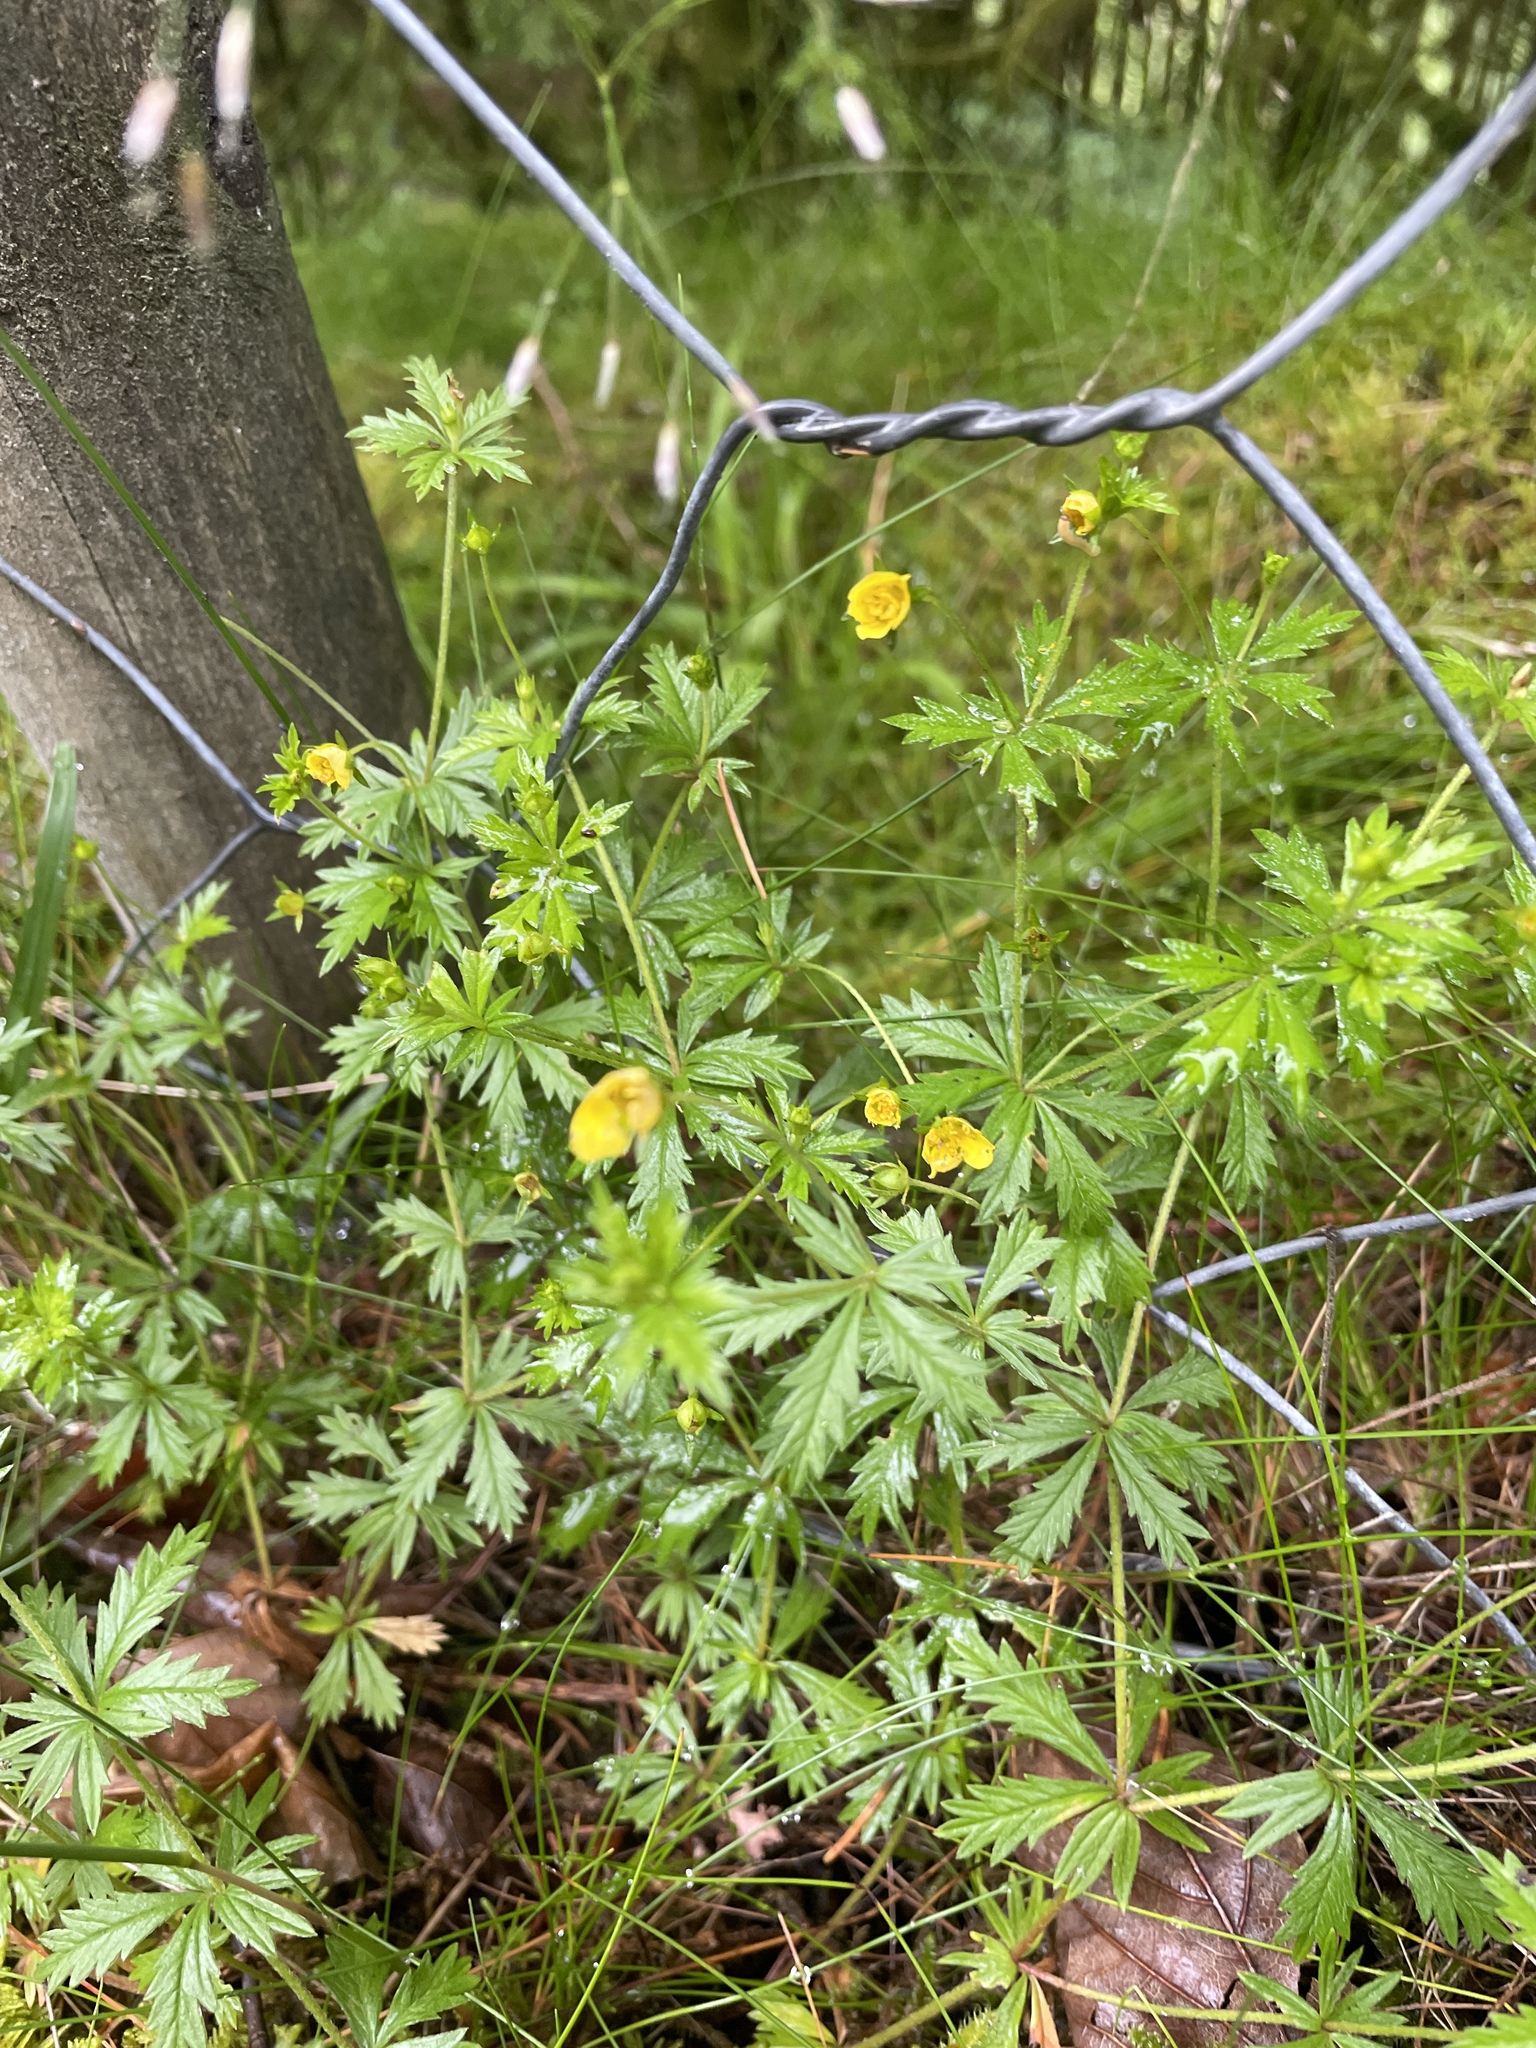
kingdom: Plantae
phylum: Tracheophyta
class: Magnoliopsida
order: Rosales
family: Rosaceae
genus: Potentilla
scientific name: Potentilla erecta
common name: Tormentil
